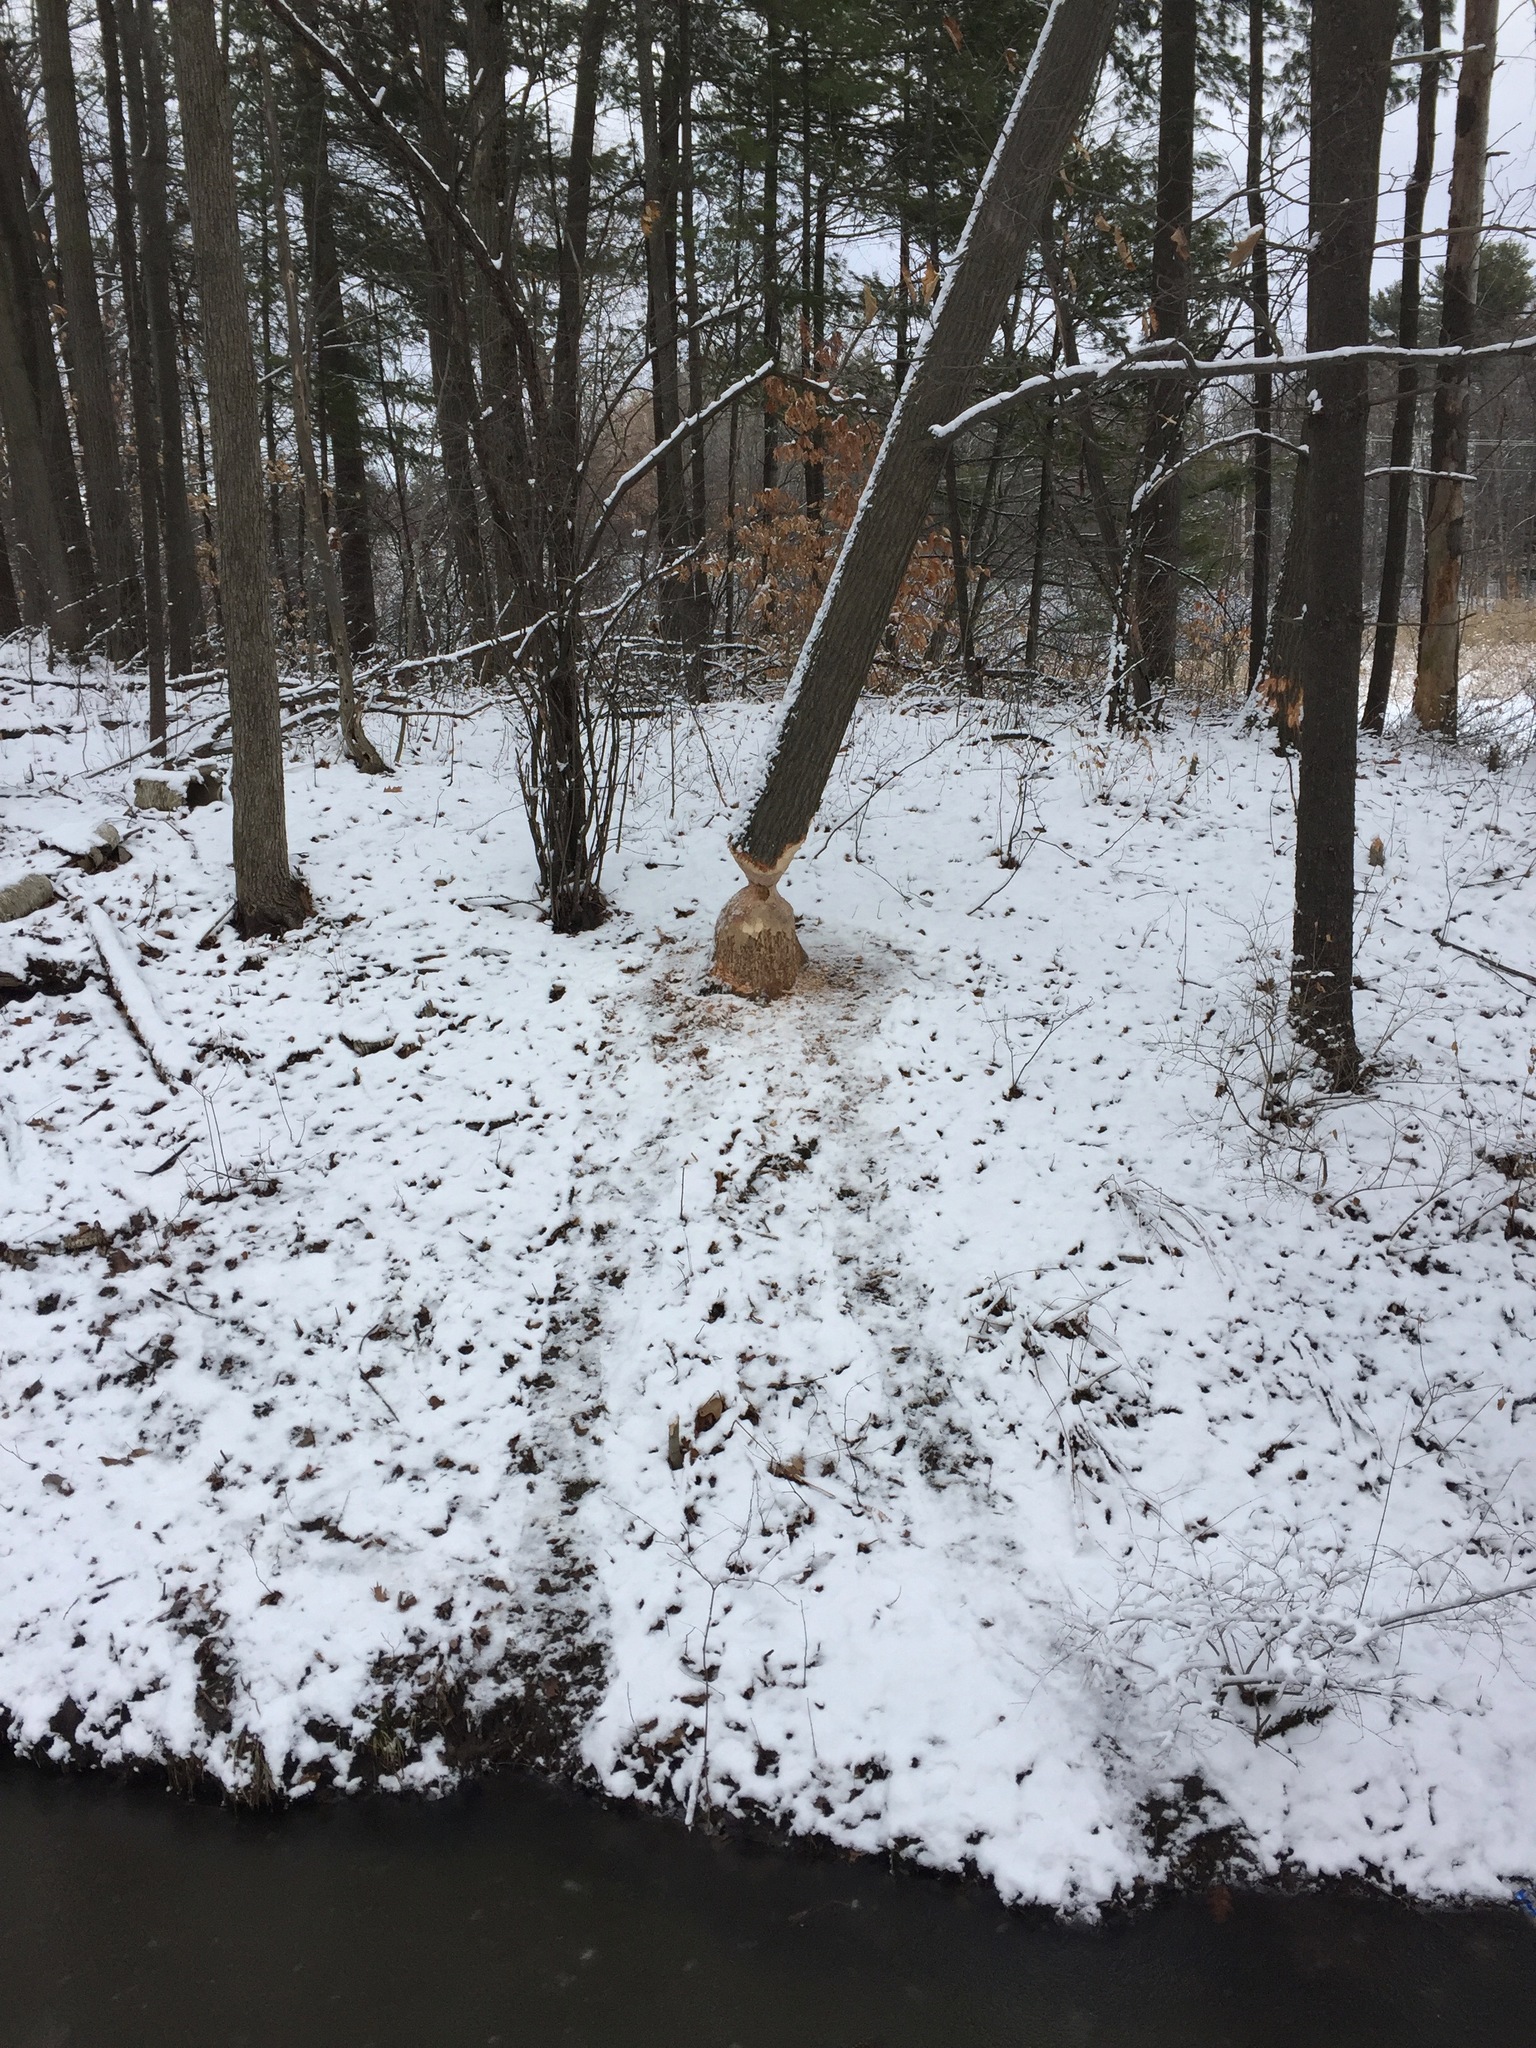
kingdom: Animalia
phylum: Chordata
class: Mammalia
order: Rodentia
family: Castoridae
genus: Castor
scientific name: Castor canadensis
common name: American beaver
